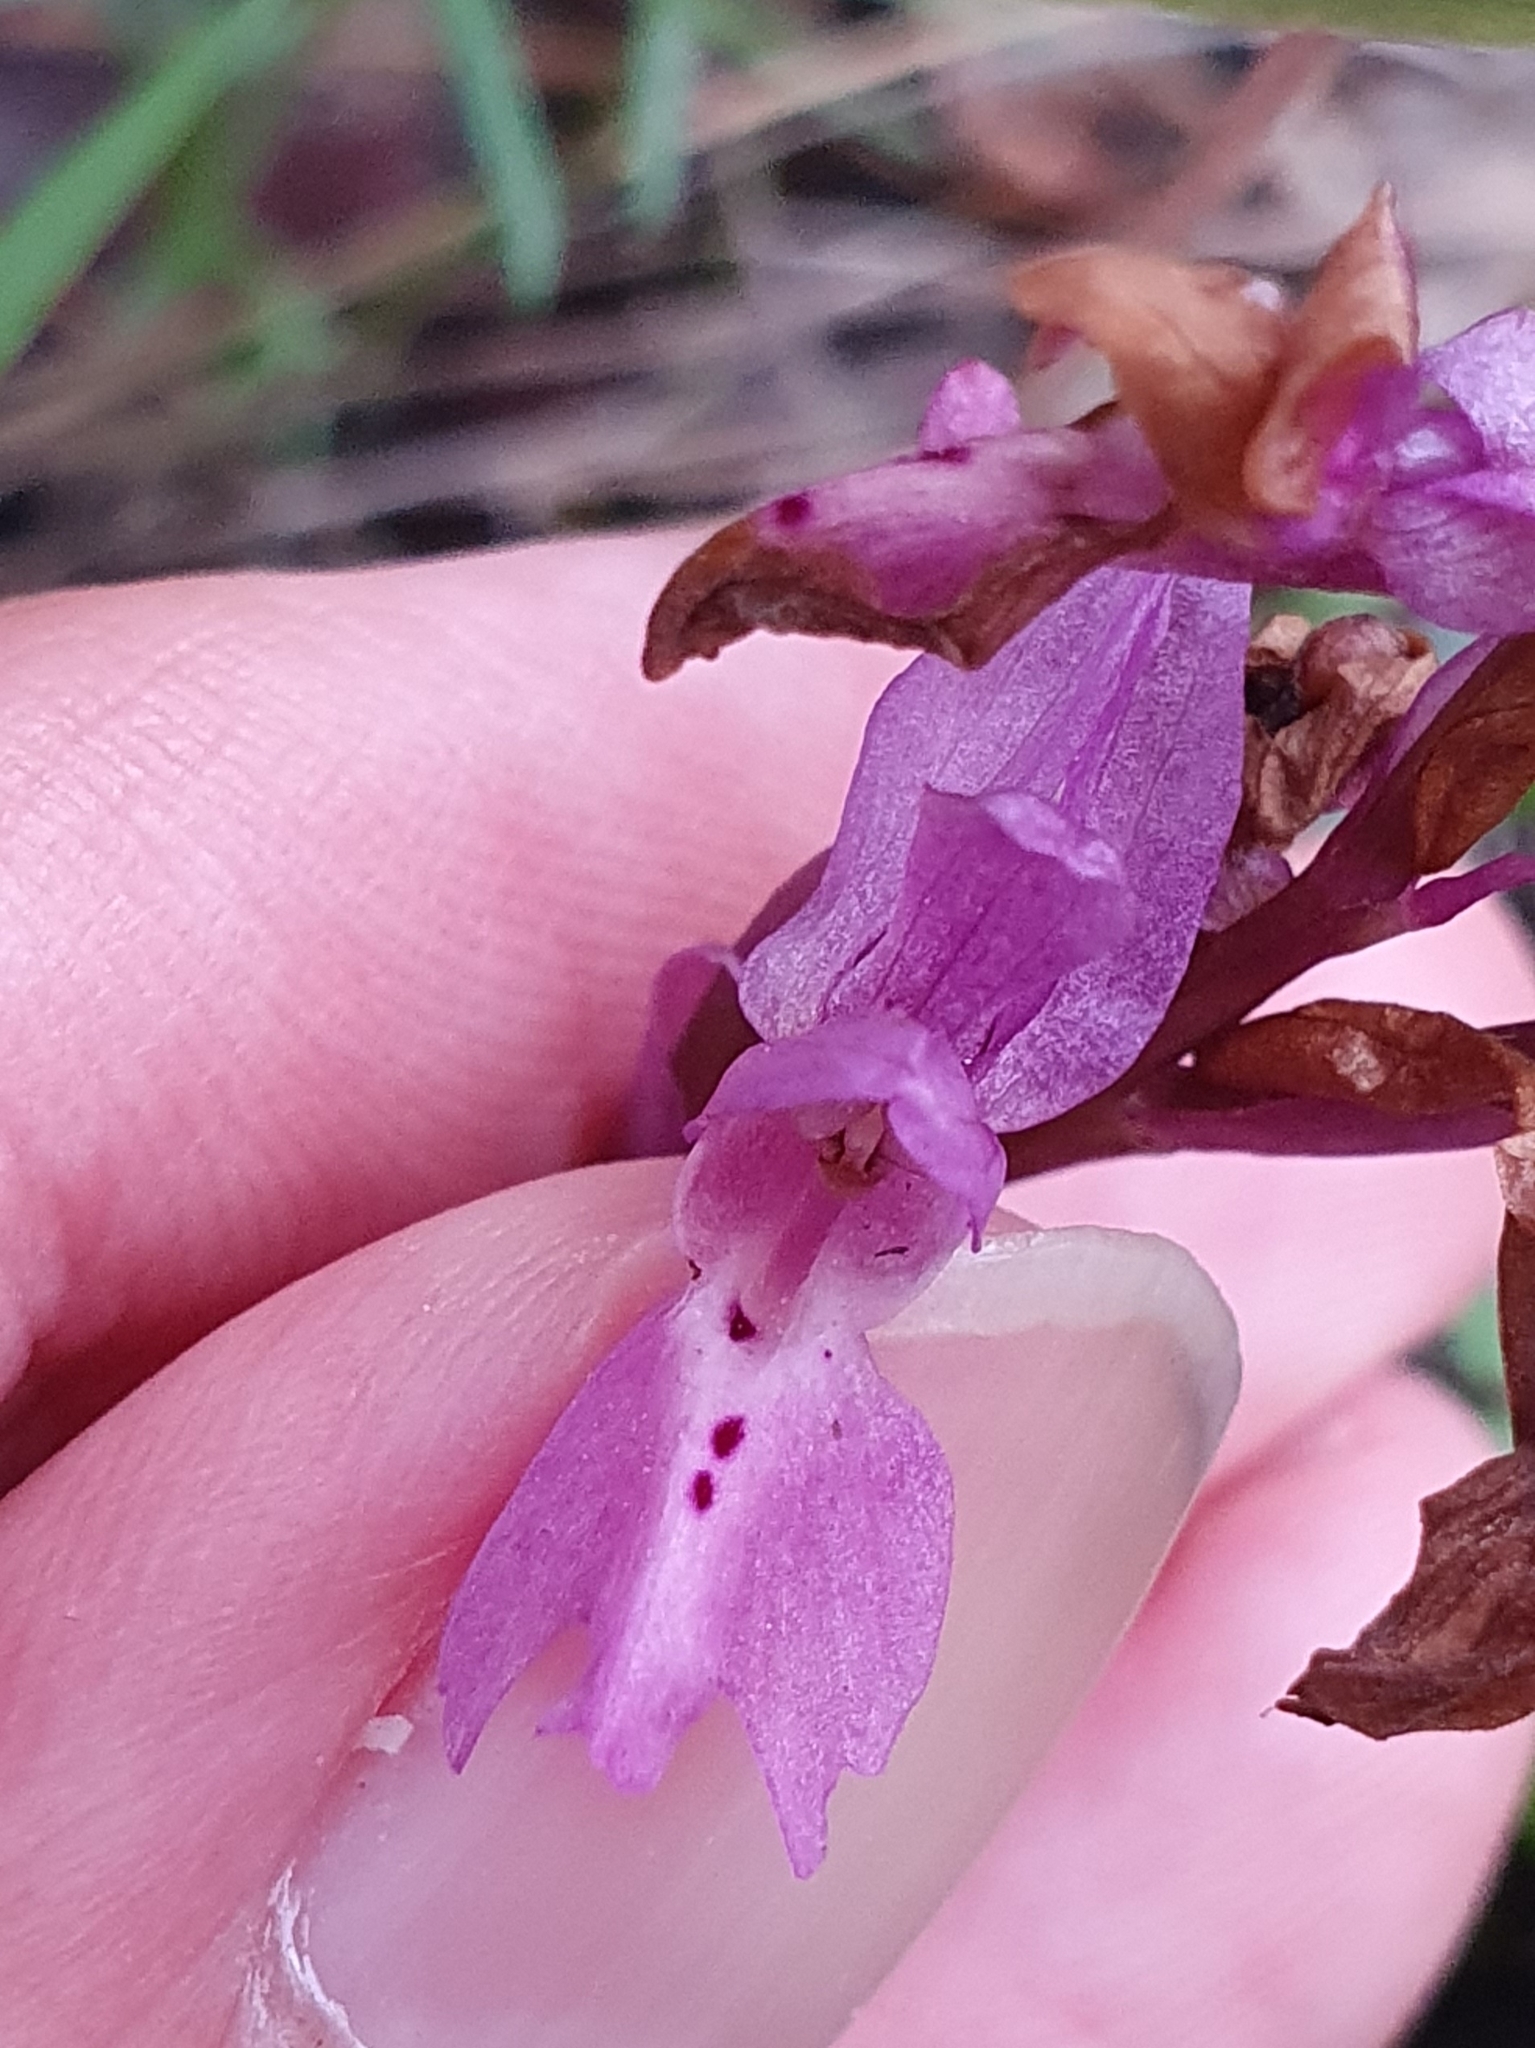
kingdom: Plantae
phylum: Tracheophyta
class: Liliopsida
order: Asparagales
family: Orchidaceae
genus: Orchis
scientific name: Orchis laeta
